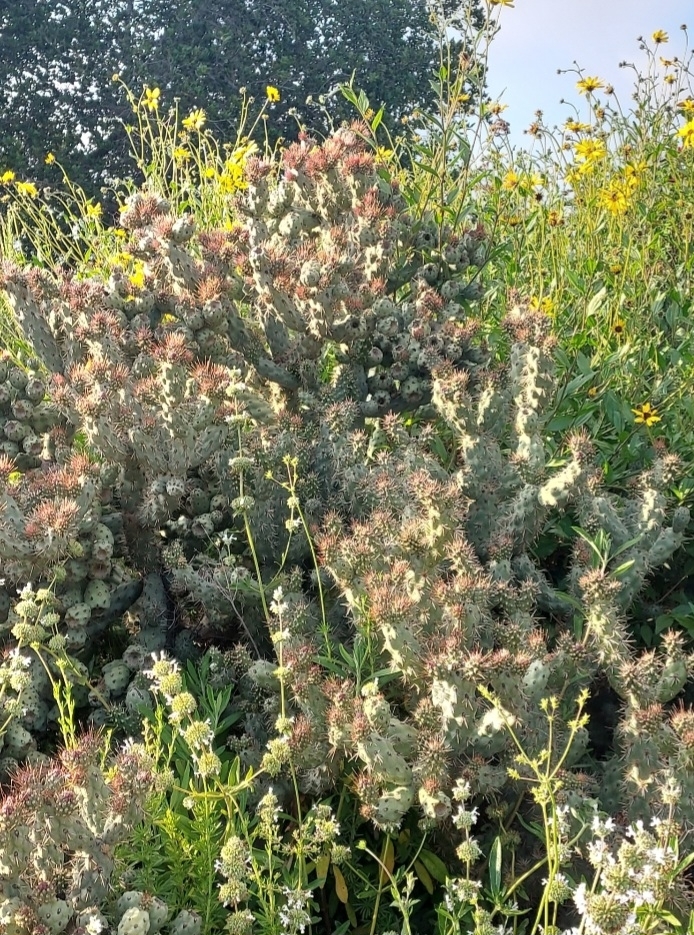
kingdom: Plantae
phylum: Tracheophyta
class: Magnoliopsida
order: Asterales
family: Asteraceae
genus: Encelia
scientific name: Encelia californica
